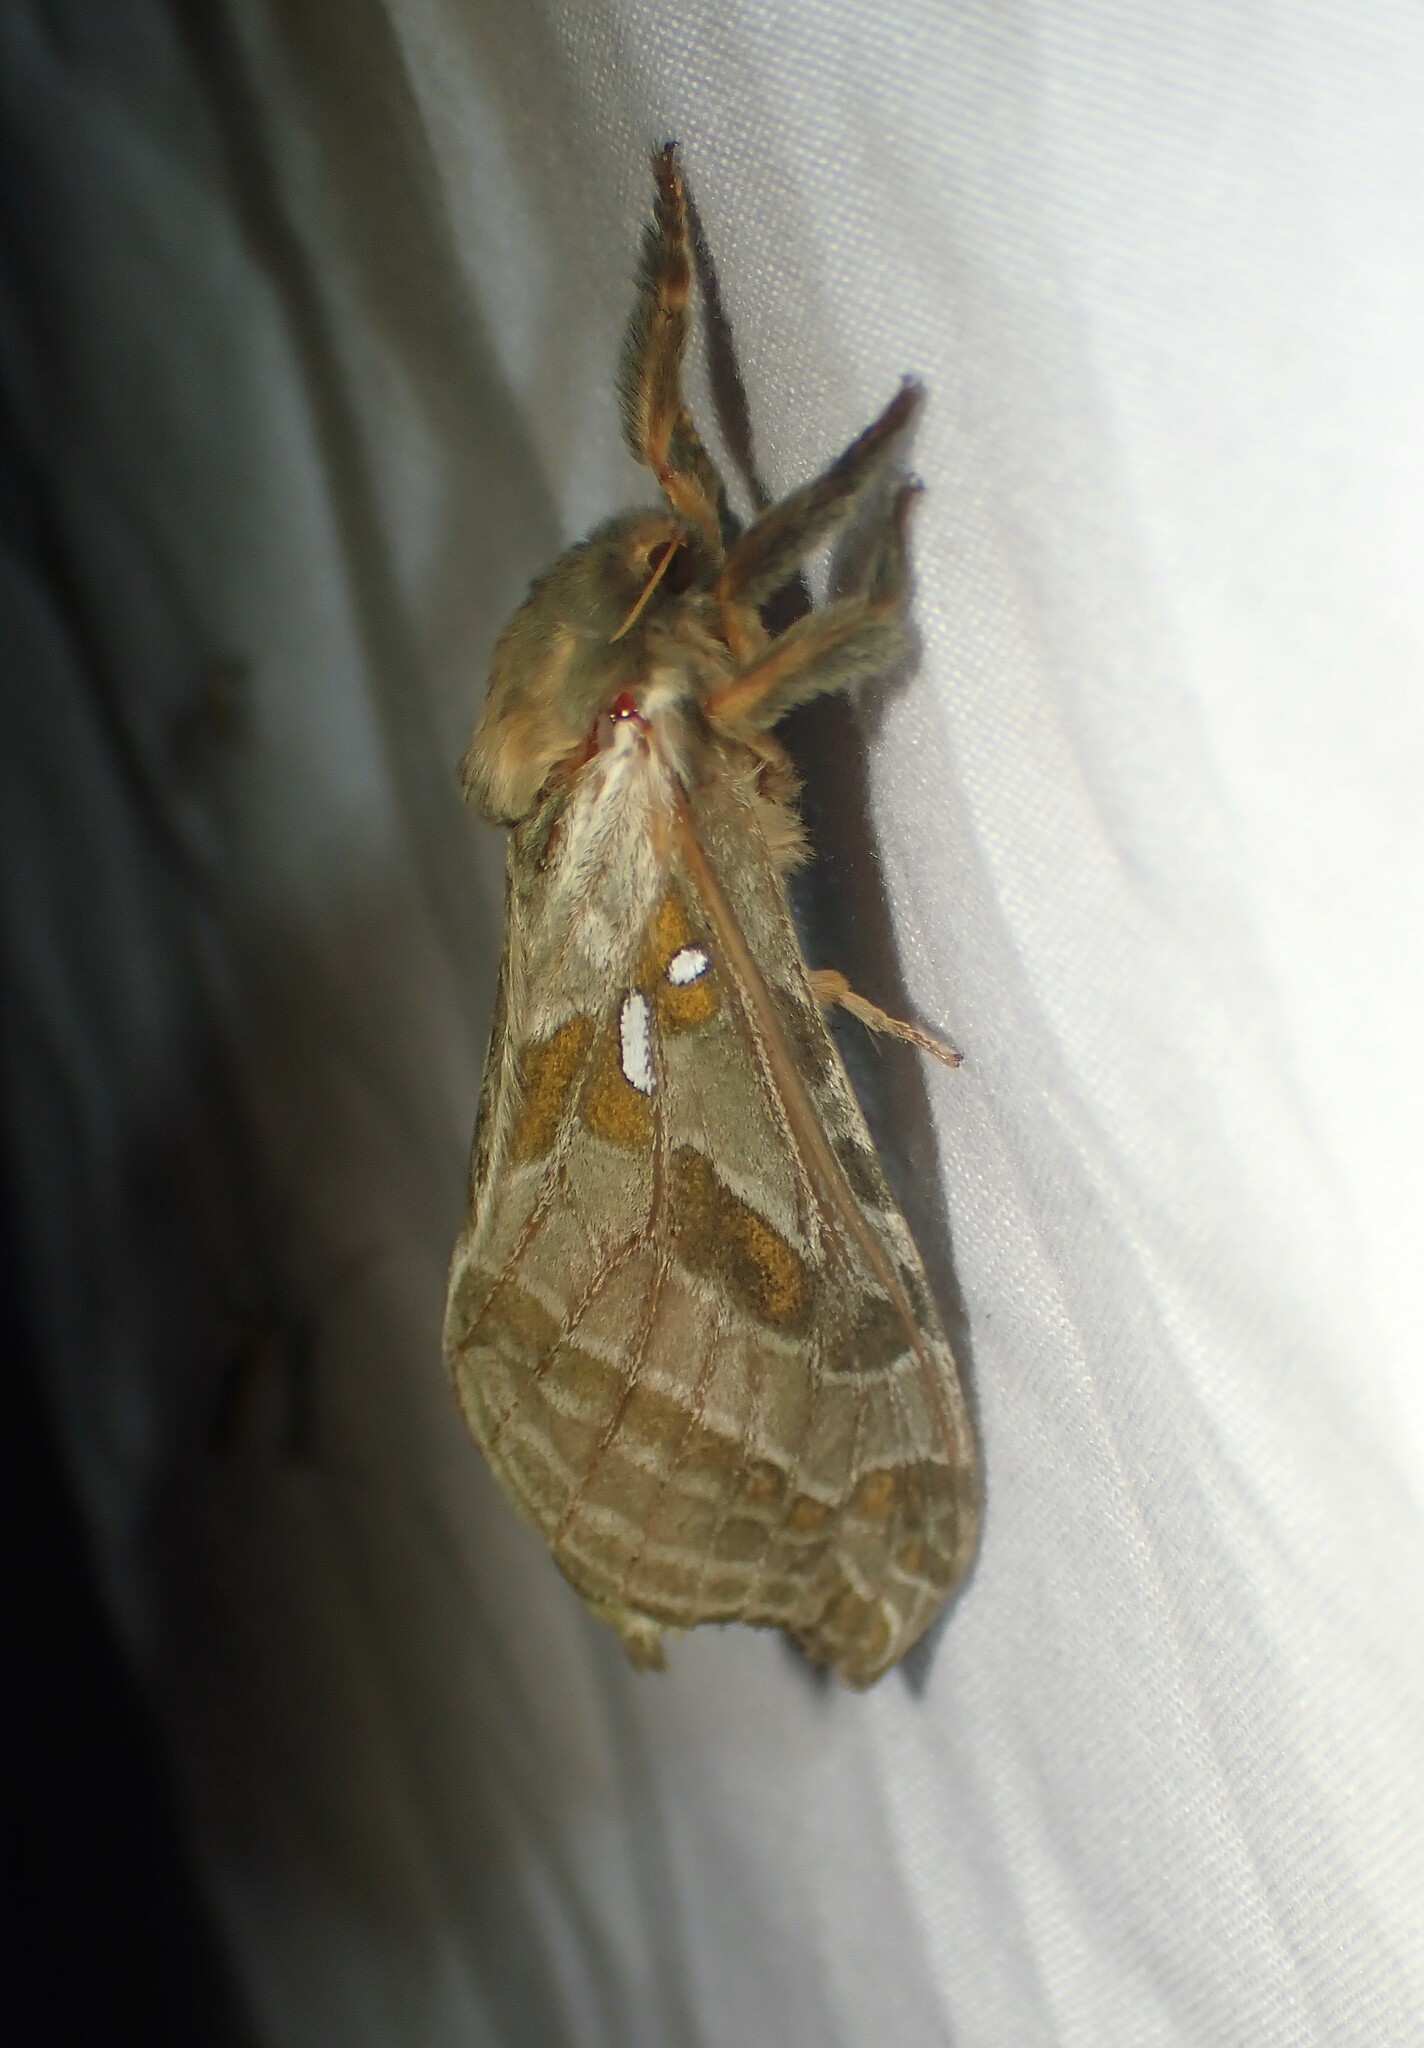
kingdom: Animalia
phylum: Arthropoda
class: Insecta
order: Lepidoptera
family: Hepialidae
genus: Sthenopis
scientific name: Sthenopis argenteomaculatus
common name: Silver-spotted ghost moth
